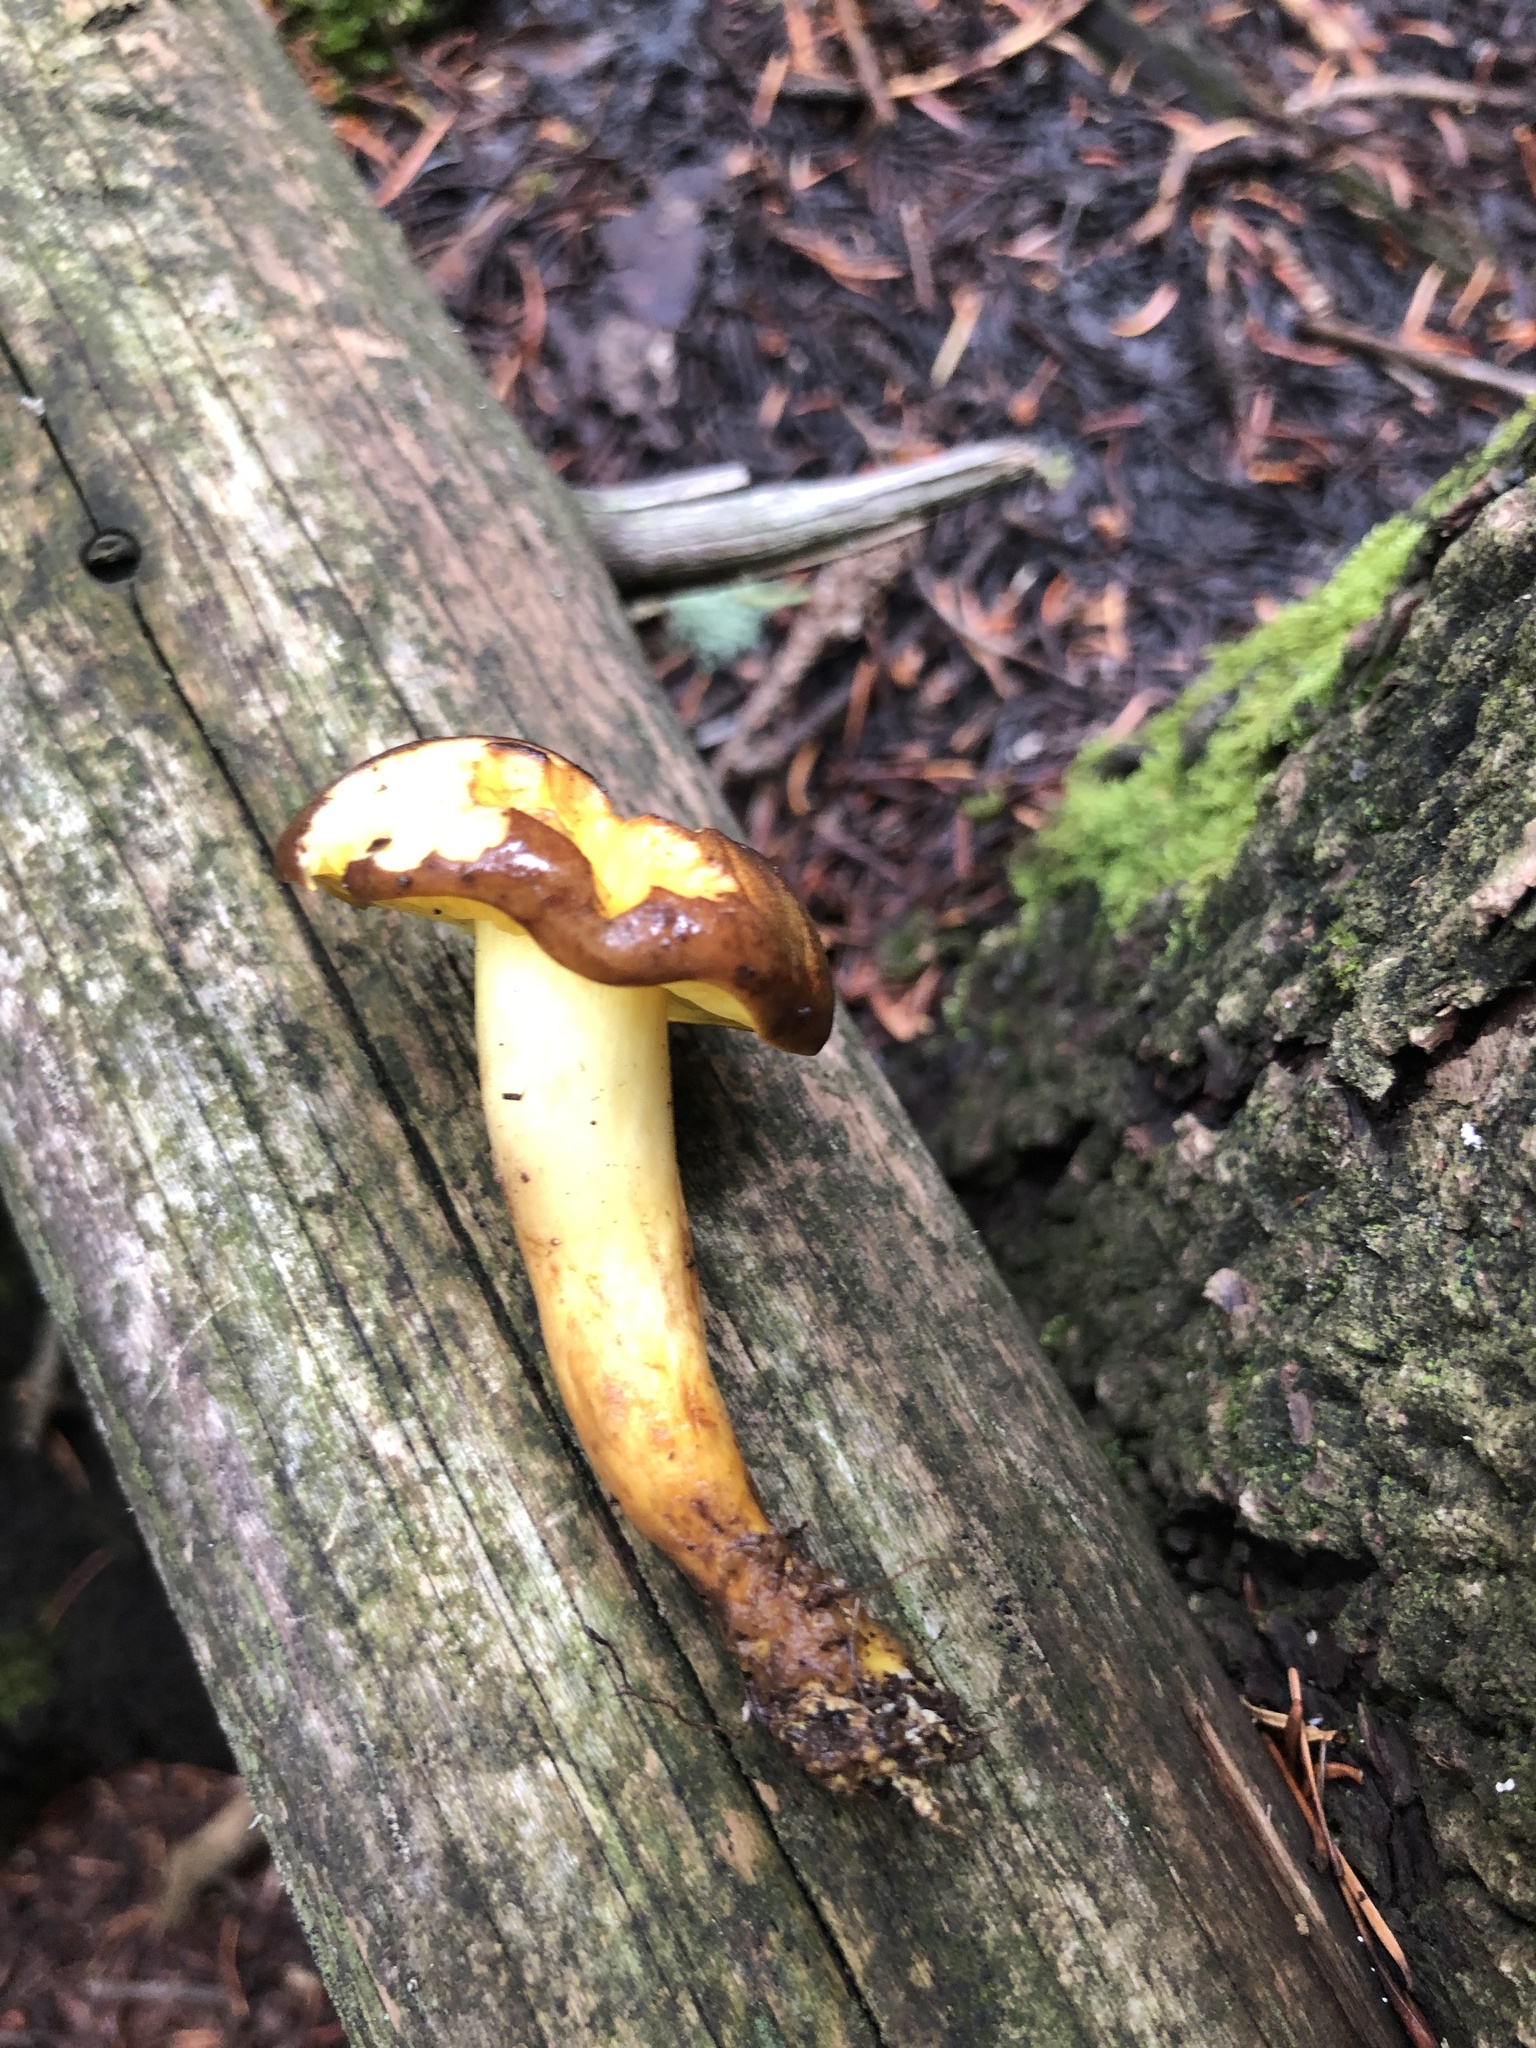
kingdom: Fungi
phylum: Basidiomycota
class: Agaricomycetes
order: Boletales
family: Boletaceae
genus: Phylloporus
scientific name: Phylloporus arenicola
